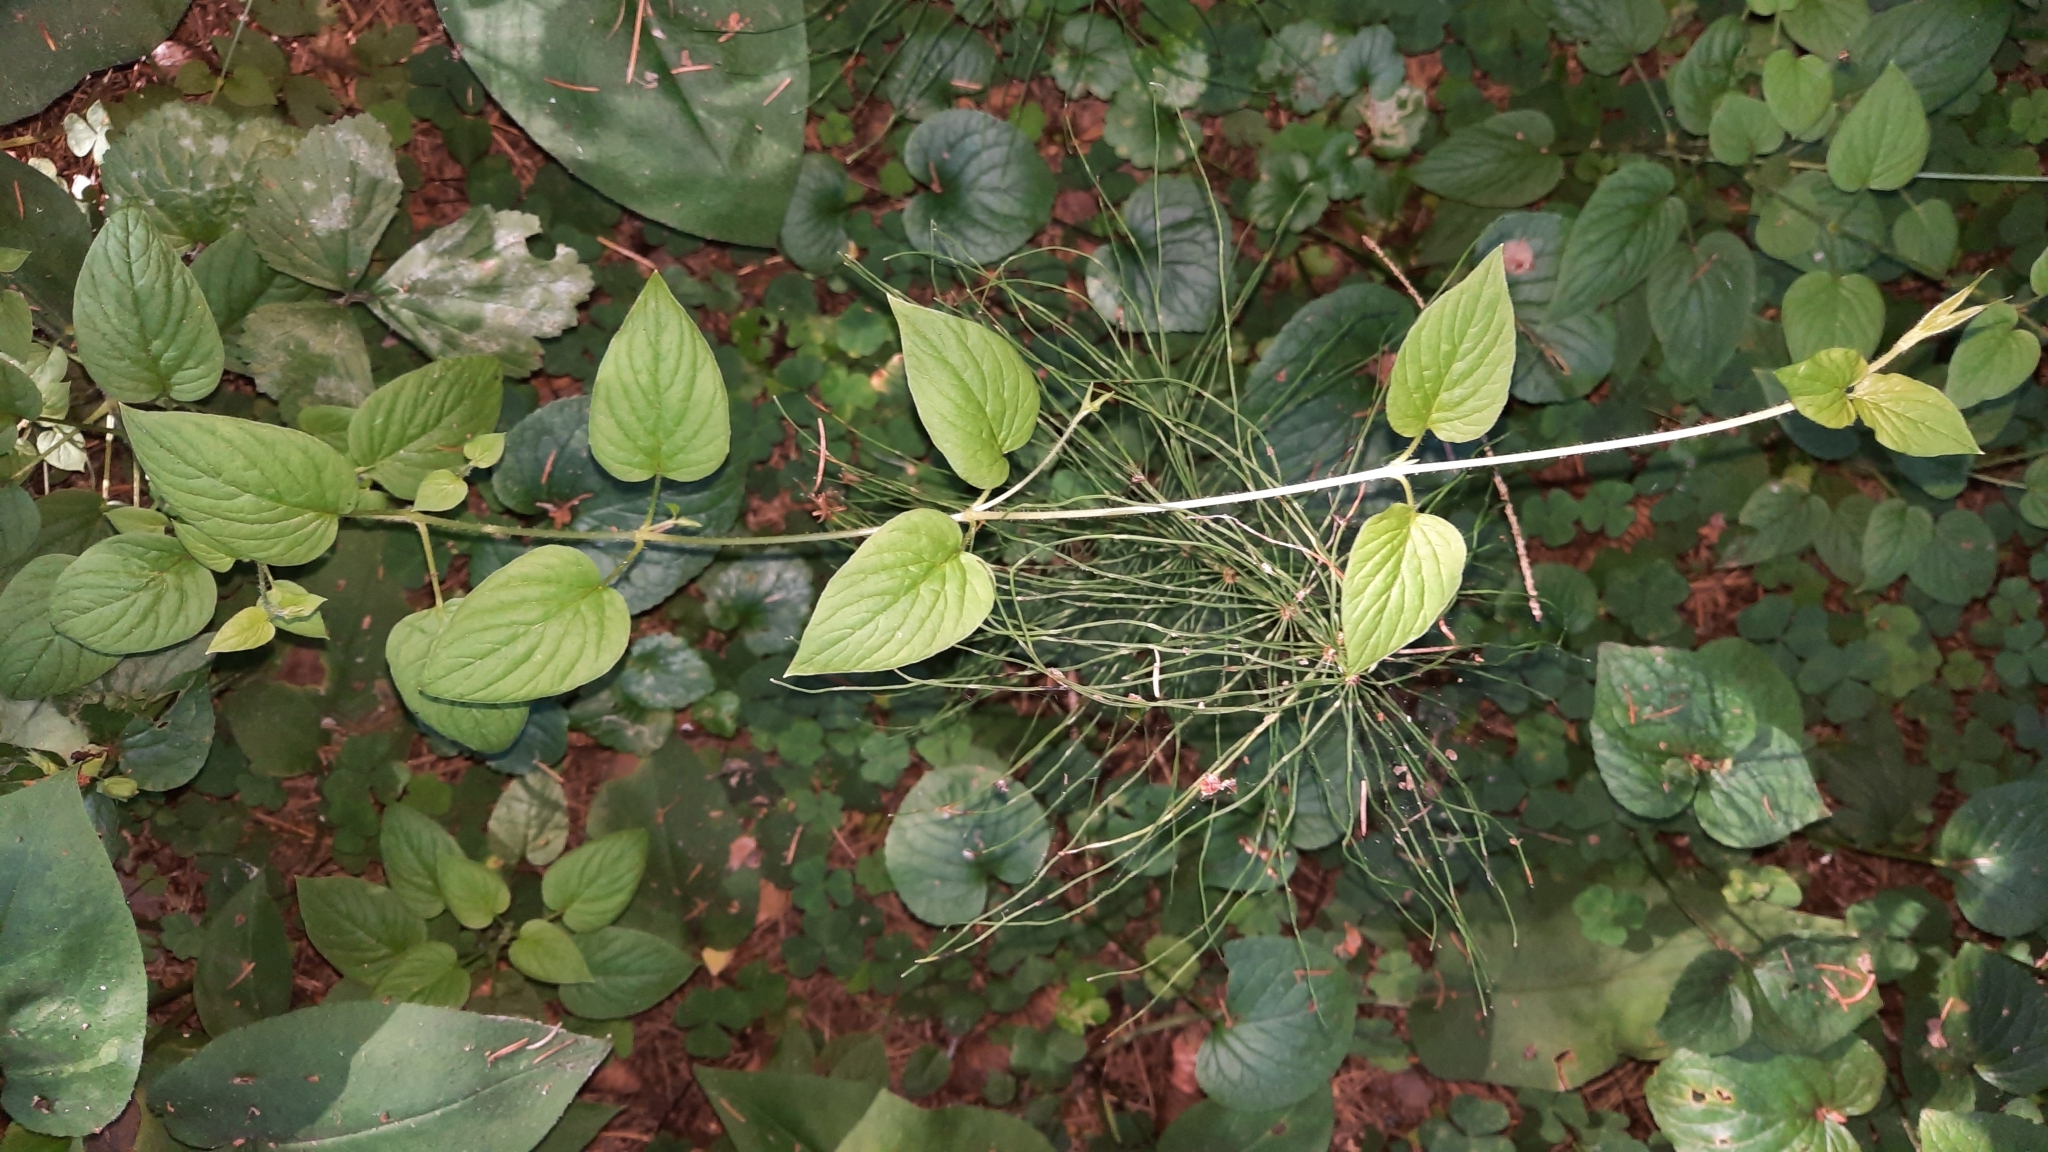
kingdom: Plantae
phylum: Tracheophyta
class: Magnoliopsida
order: Caryophyllales
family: Caryophyllaceae
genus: Stellaria
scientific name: Stellaria nemorum
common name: Wood stitchwort
